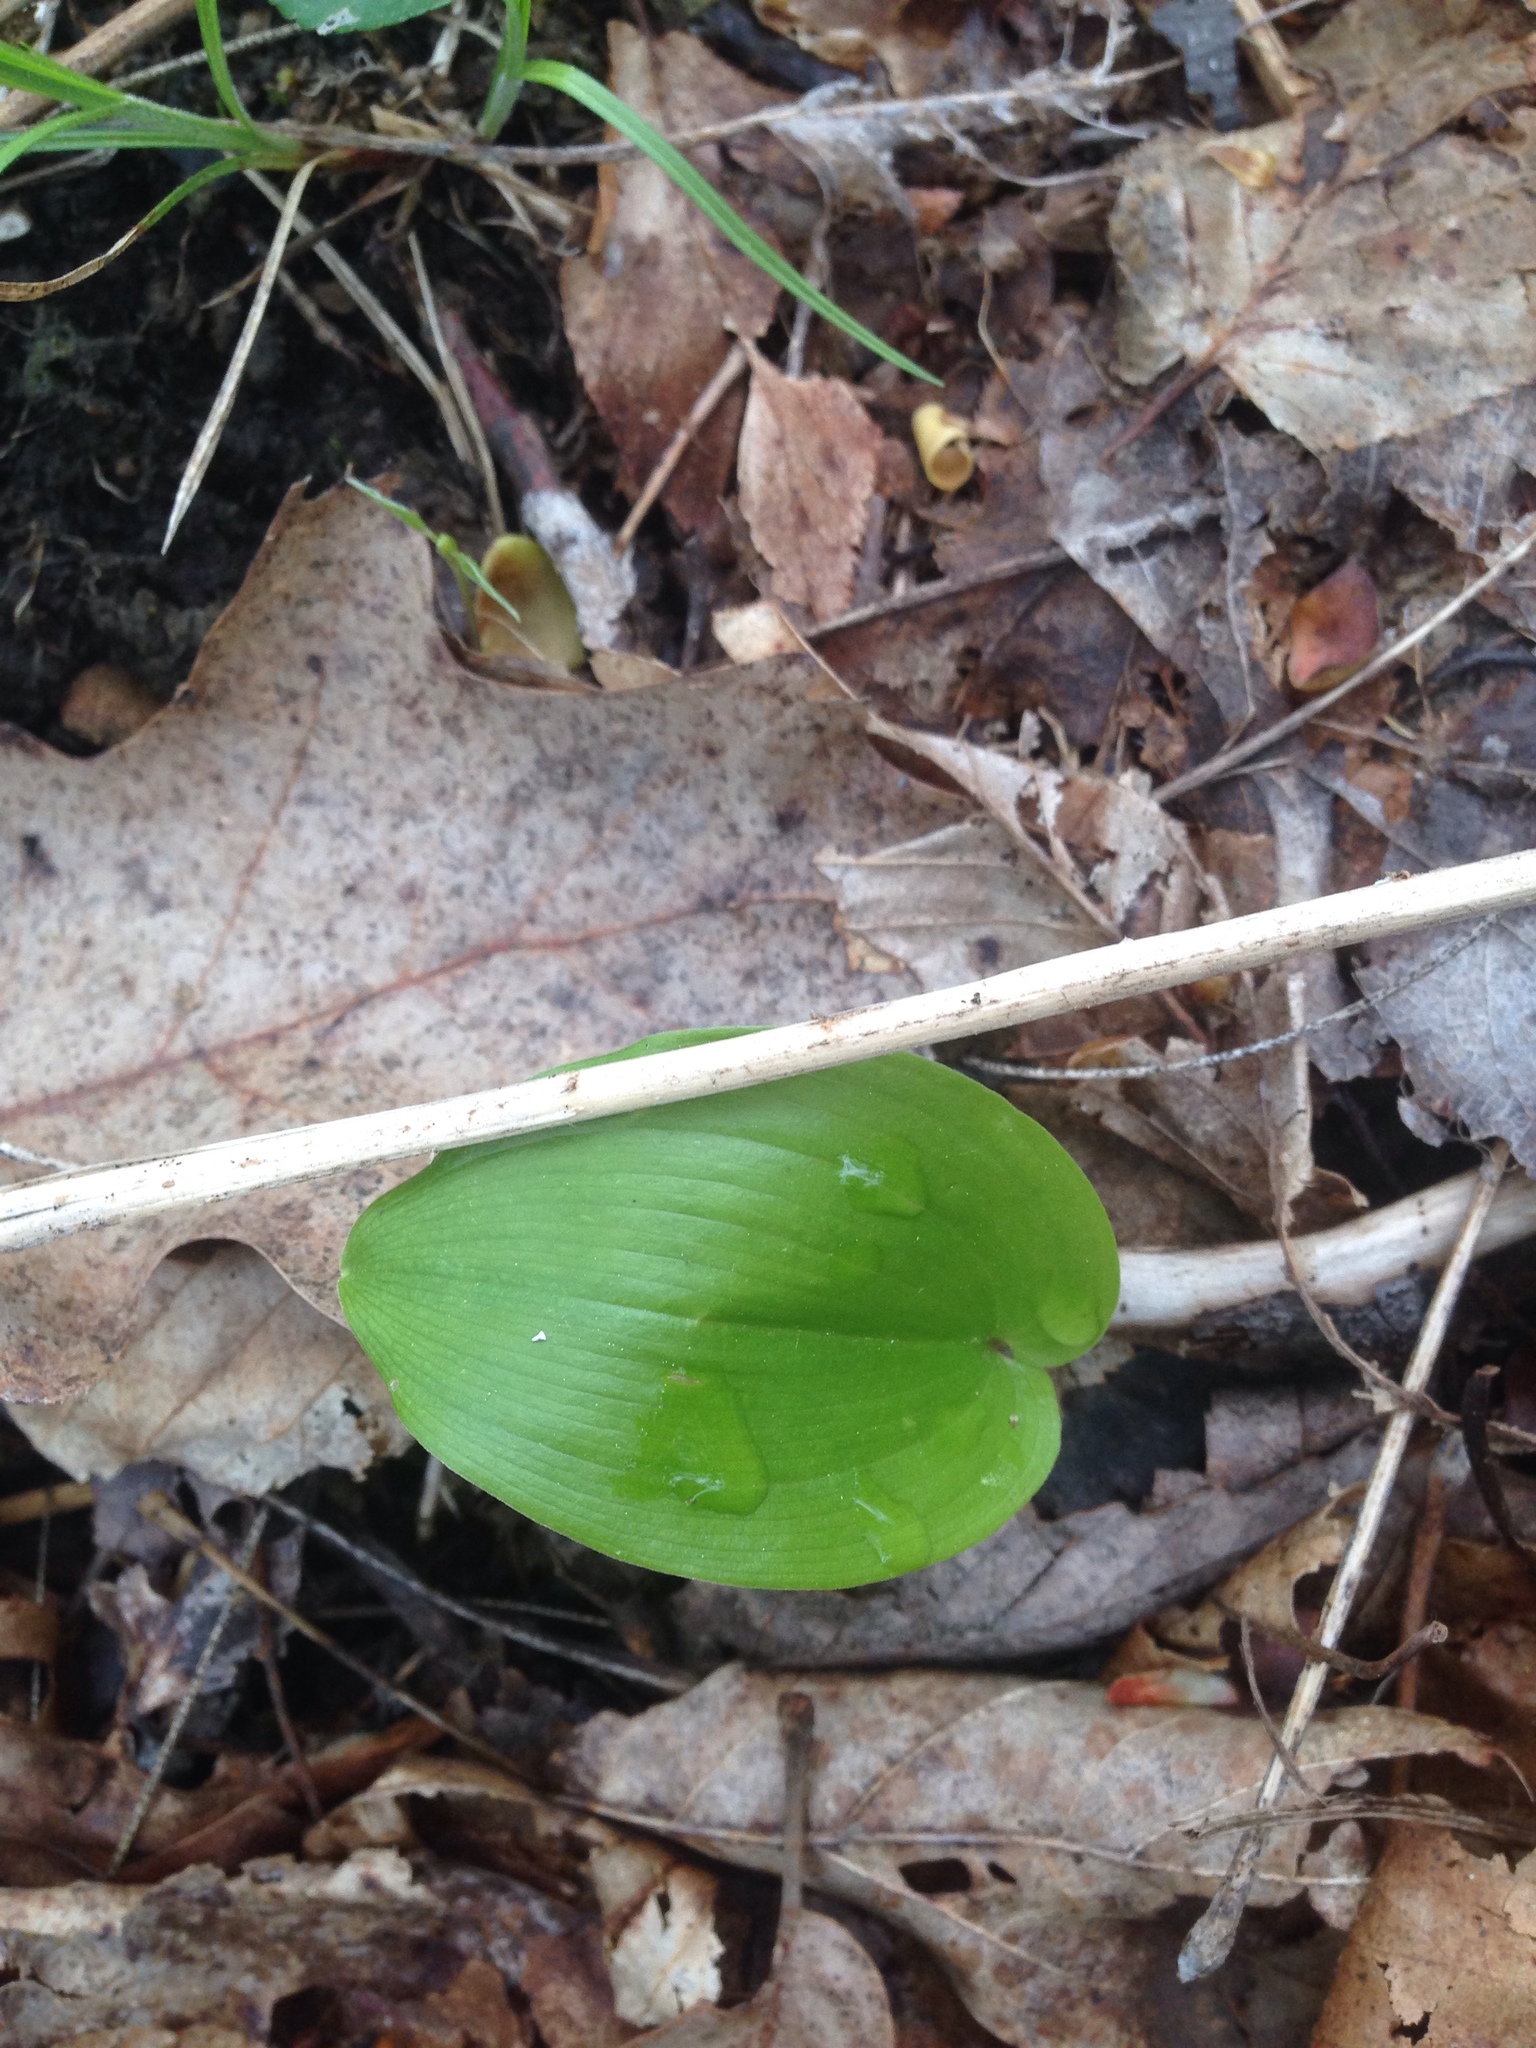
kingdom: Plantae
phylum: Tracheophyta
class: Liliopsida
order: Asparagales
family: Asparagaceae
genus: Maianthemum
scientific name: Maianthemum canadense
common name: False lily-of-the-valley
